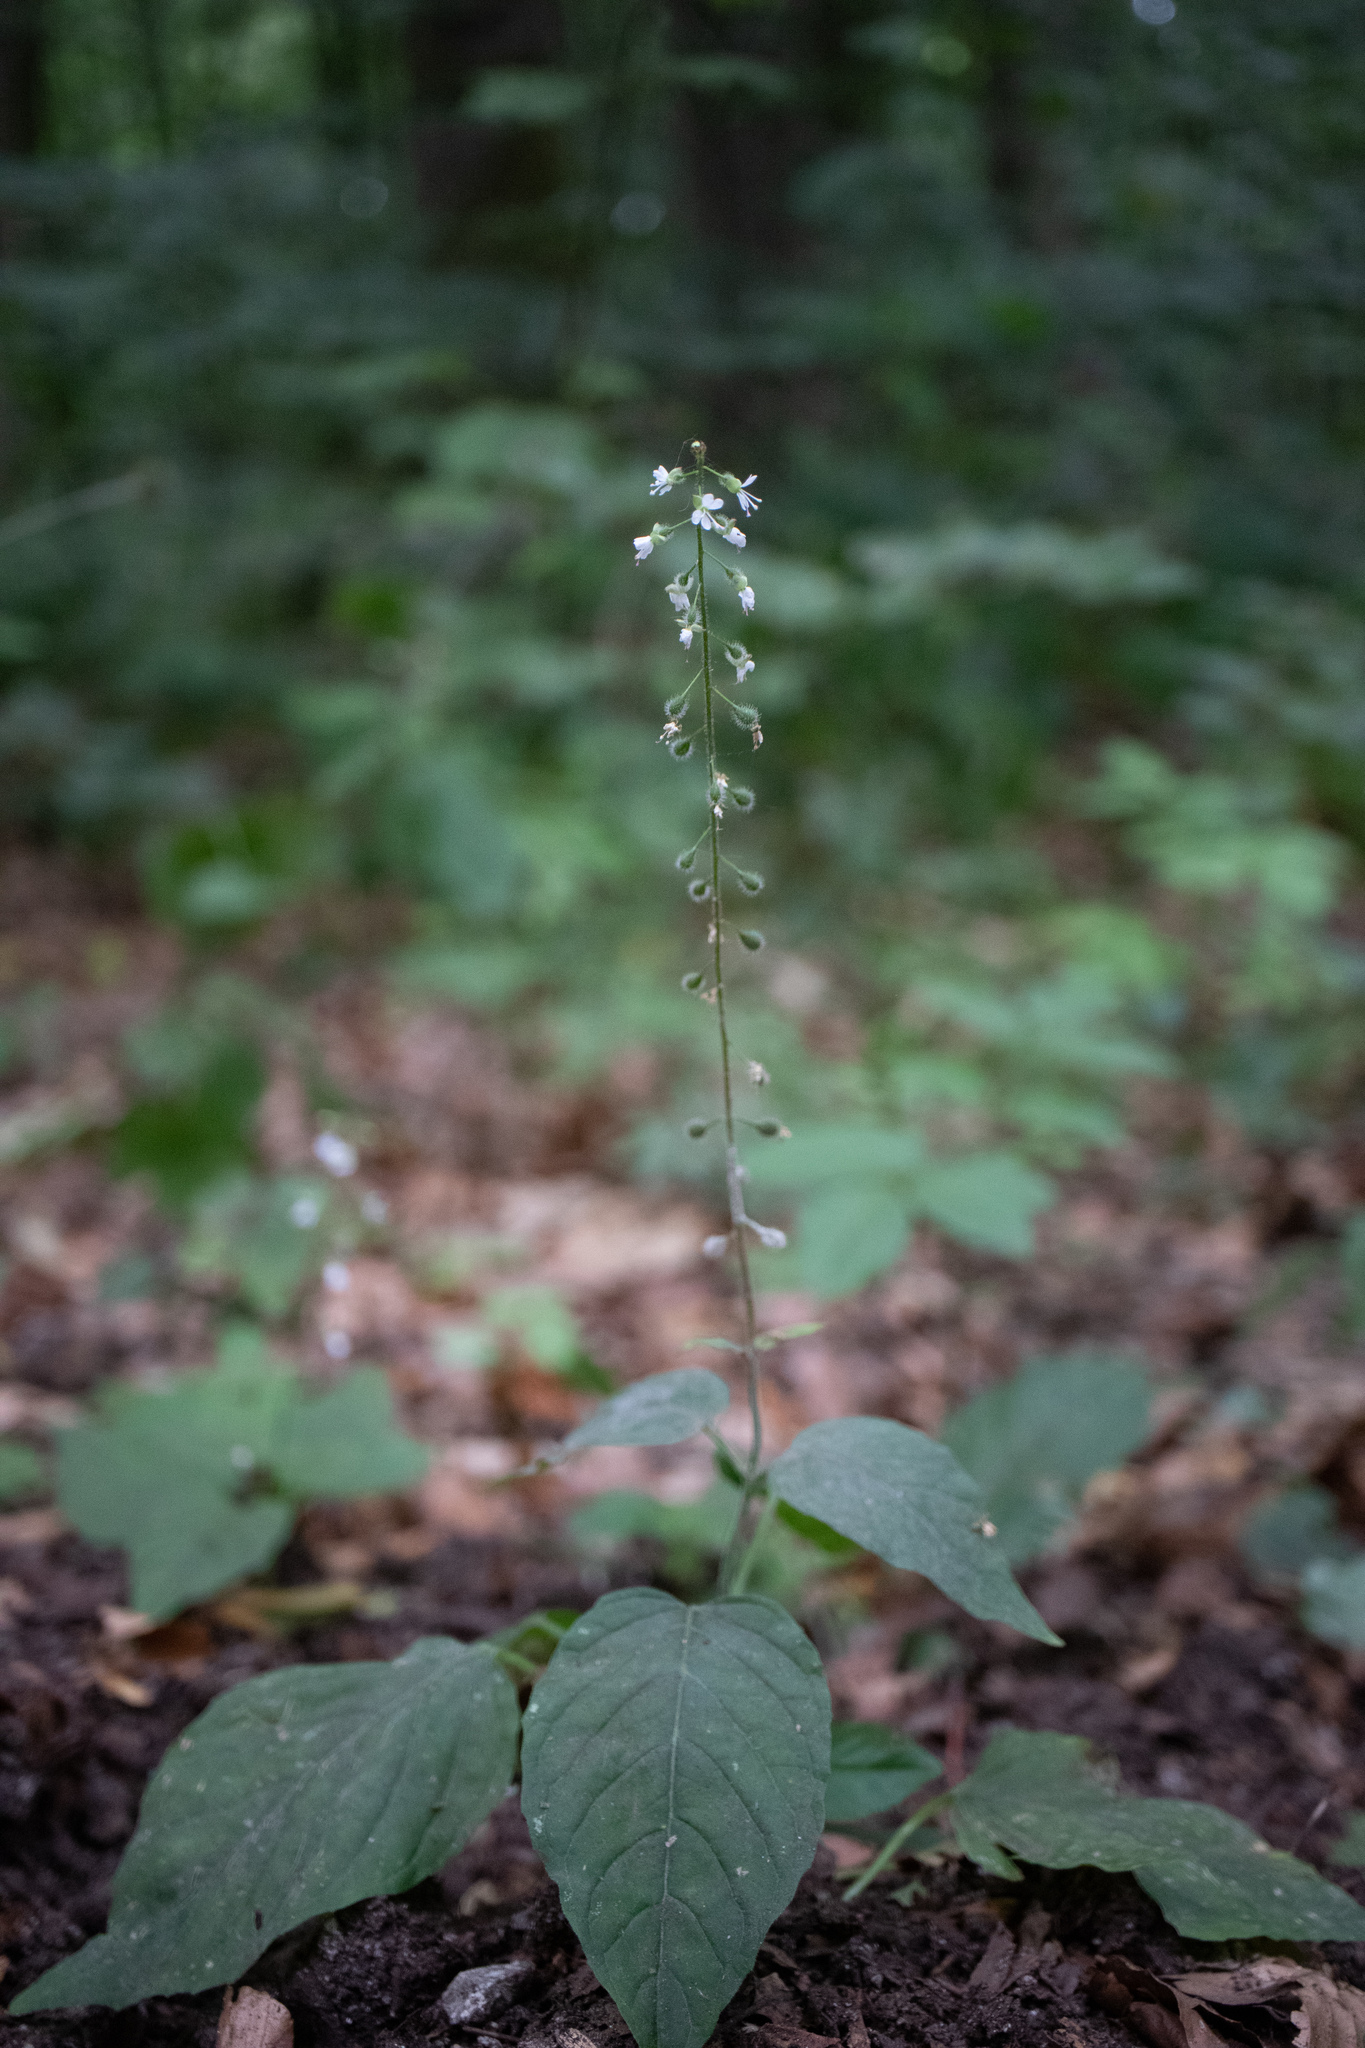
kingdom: Plantae
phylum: Tracheophyta
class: Magnoliopsida
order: Myrtales
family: Onagraceae
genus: Circaea
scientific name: Circaea lutetiana
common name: Enchanter's-nightshade
